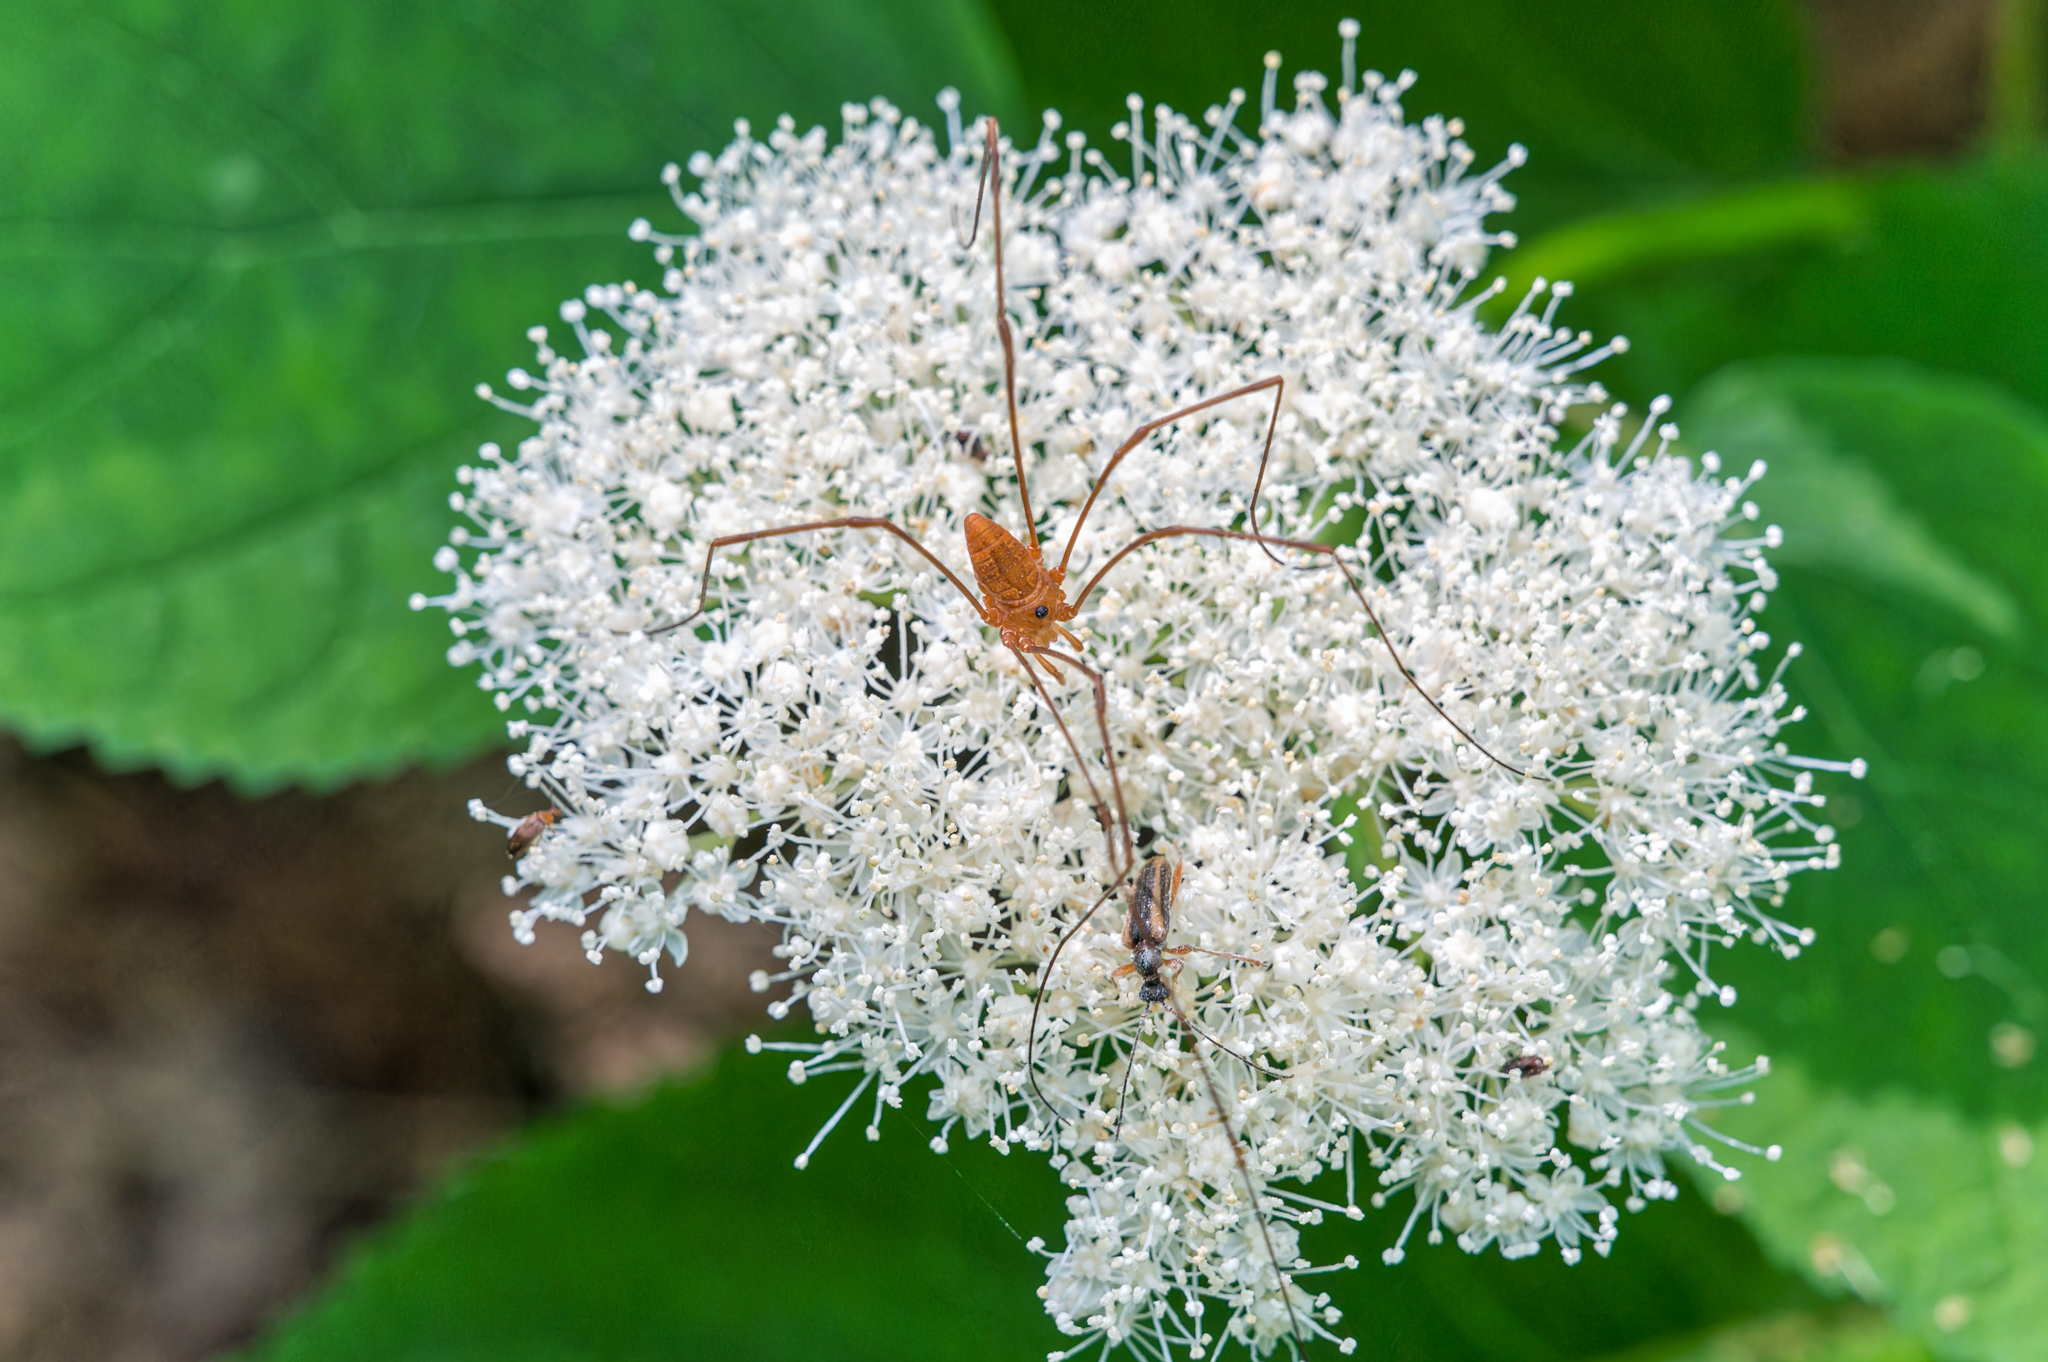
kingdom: Animalia
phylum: Arthropoda
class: Arachnida
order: Opiliones
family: Sclerosomatidae
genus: Leiobunum
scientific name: Leiobunum ventricosum
